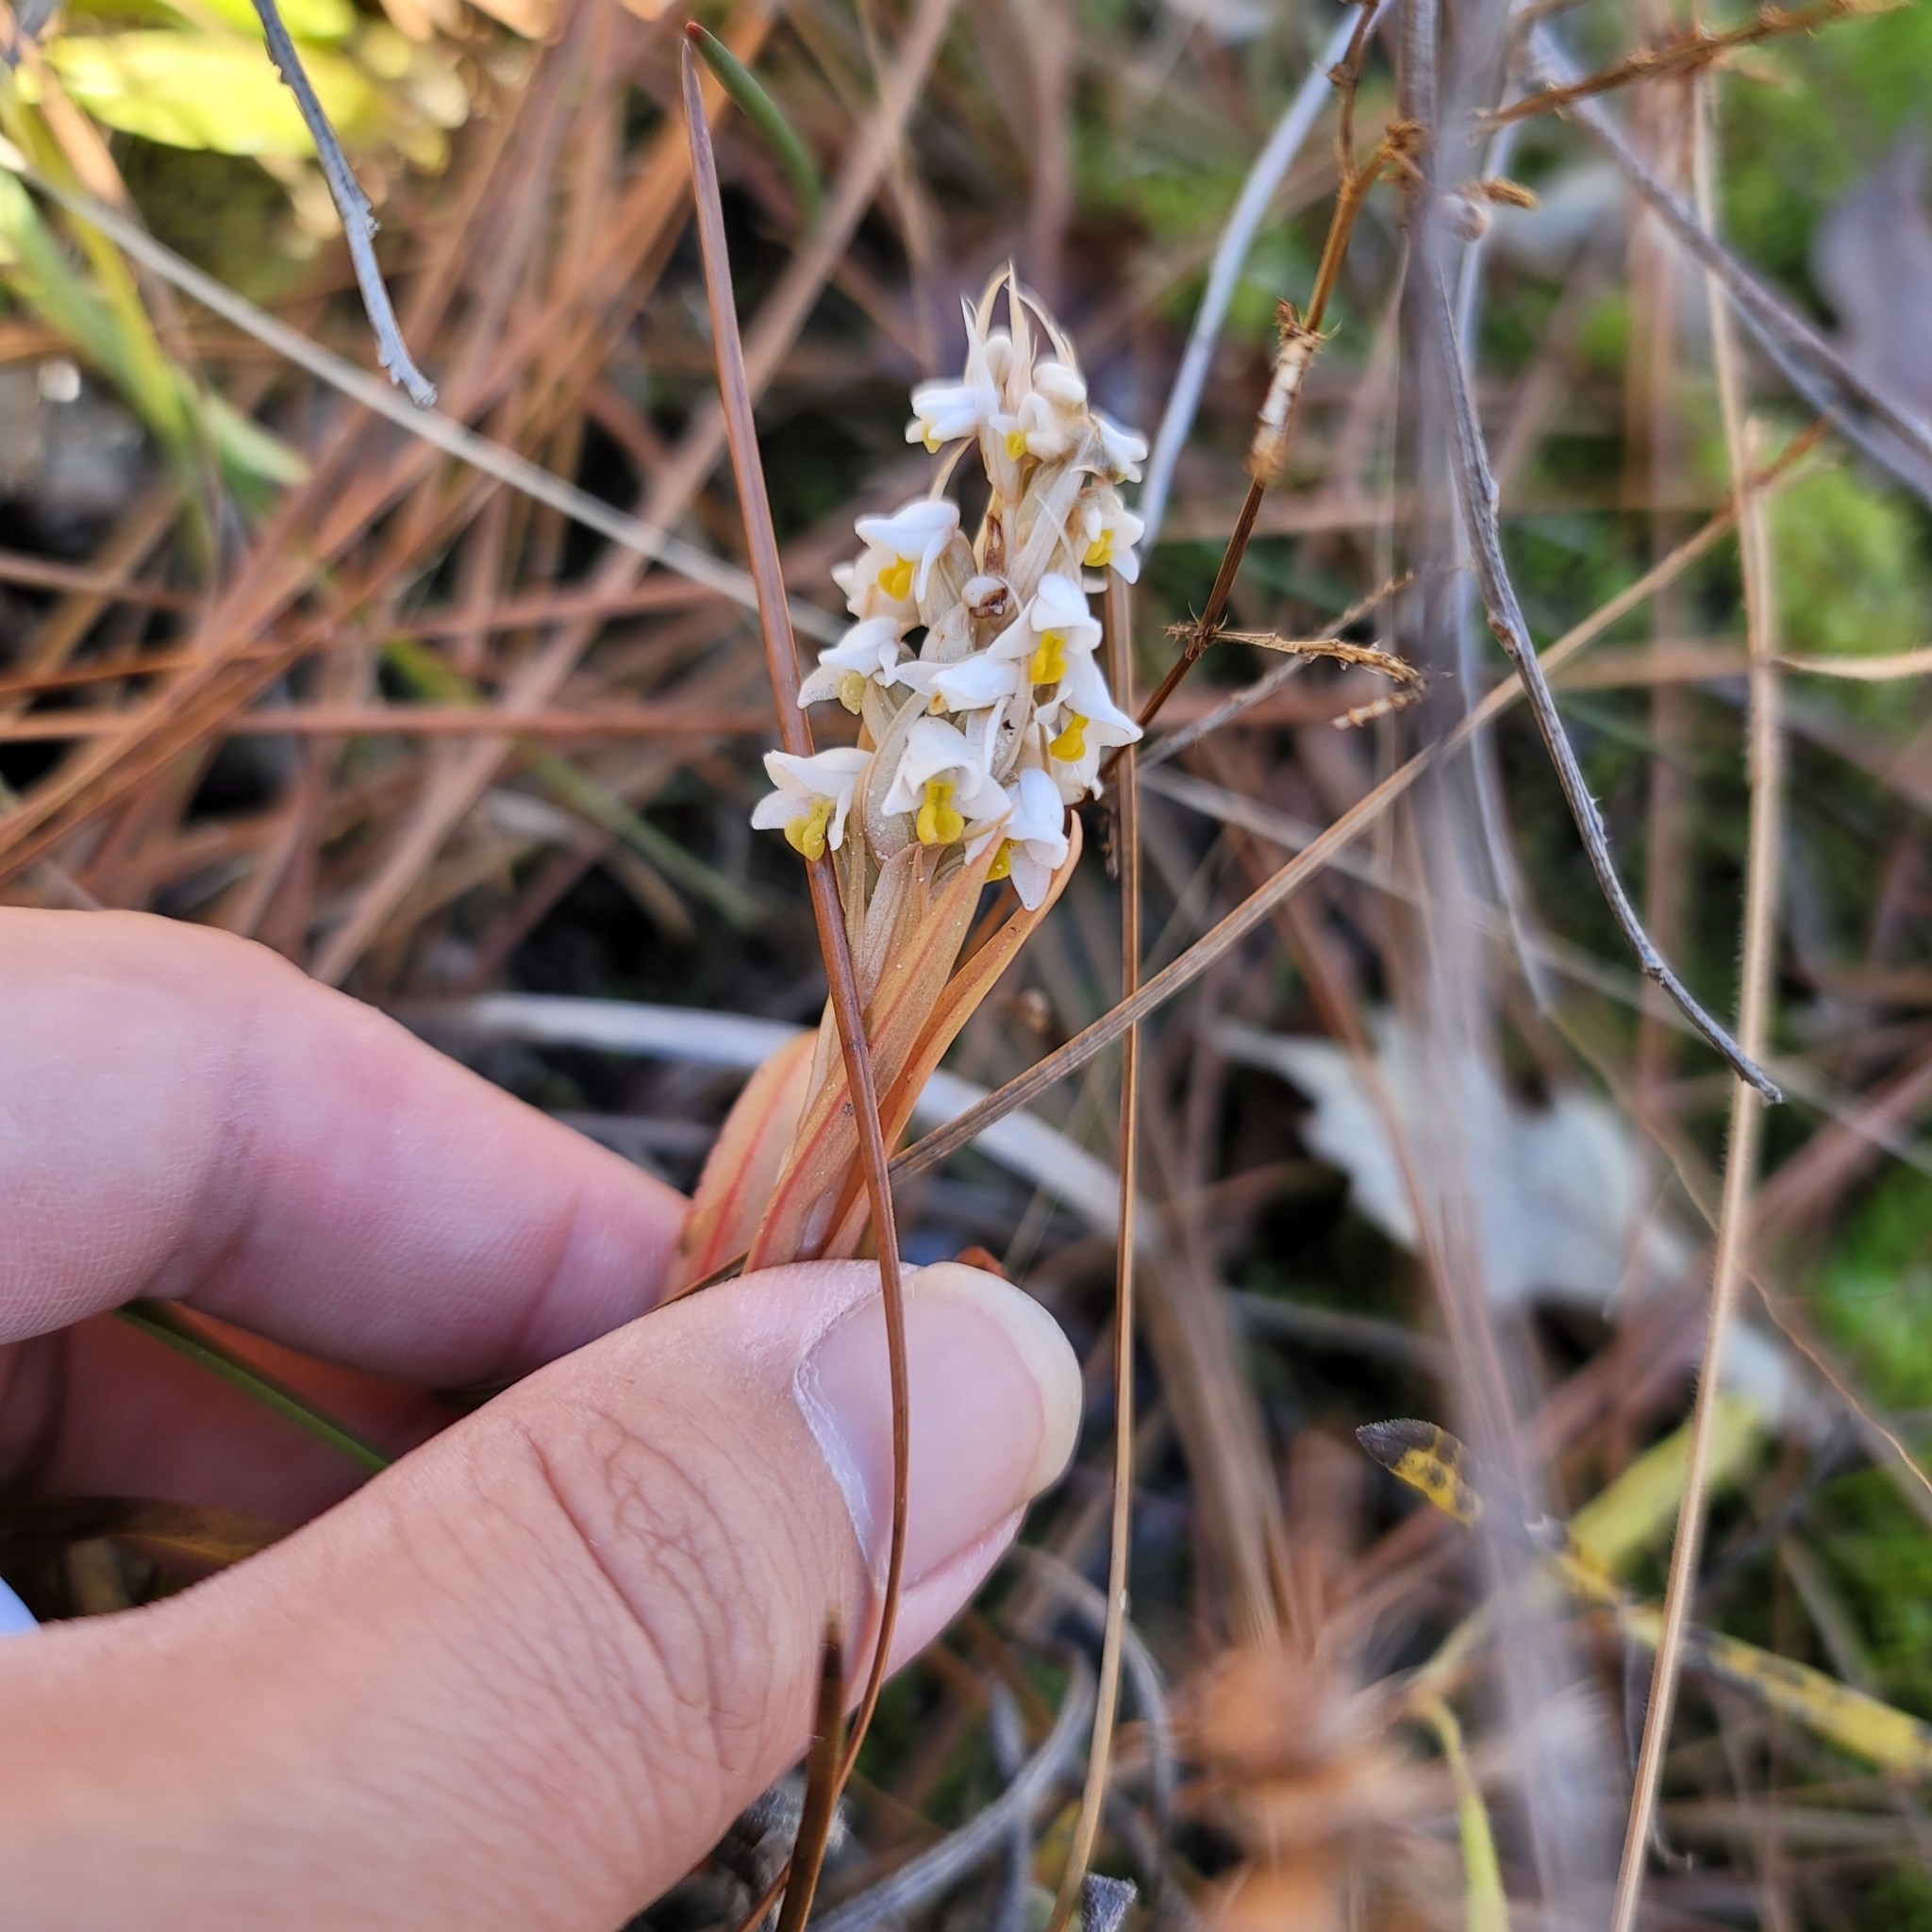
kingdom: Plantae
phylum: Tracheophyta
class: Liliopsida
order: Asparagales
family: Orchidaceae
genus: Zeuxine
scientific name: Zeuxine strateumatica
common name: Soldier's orchid
